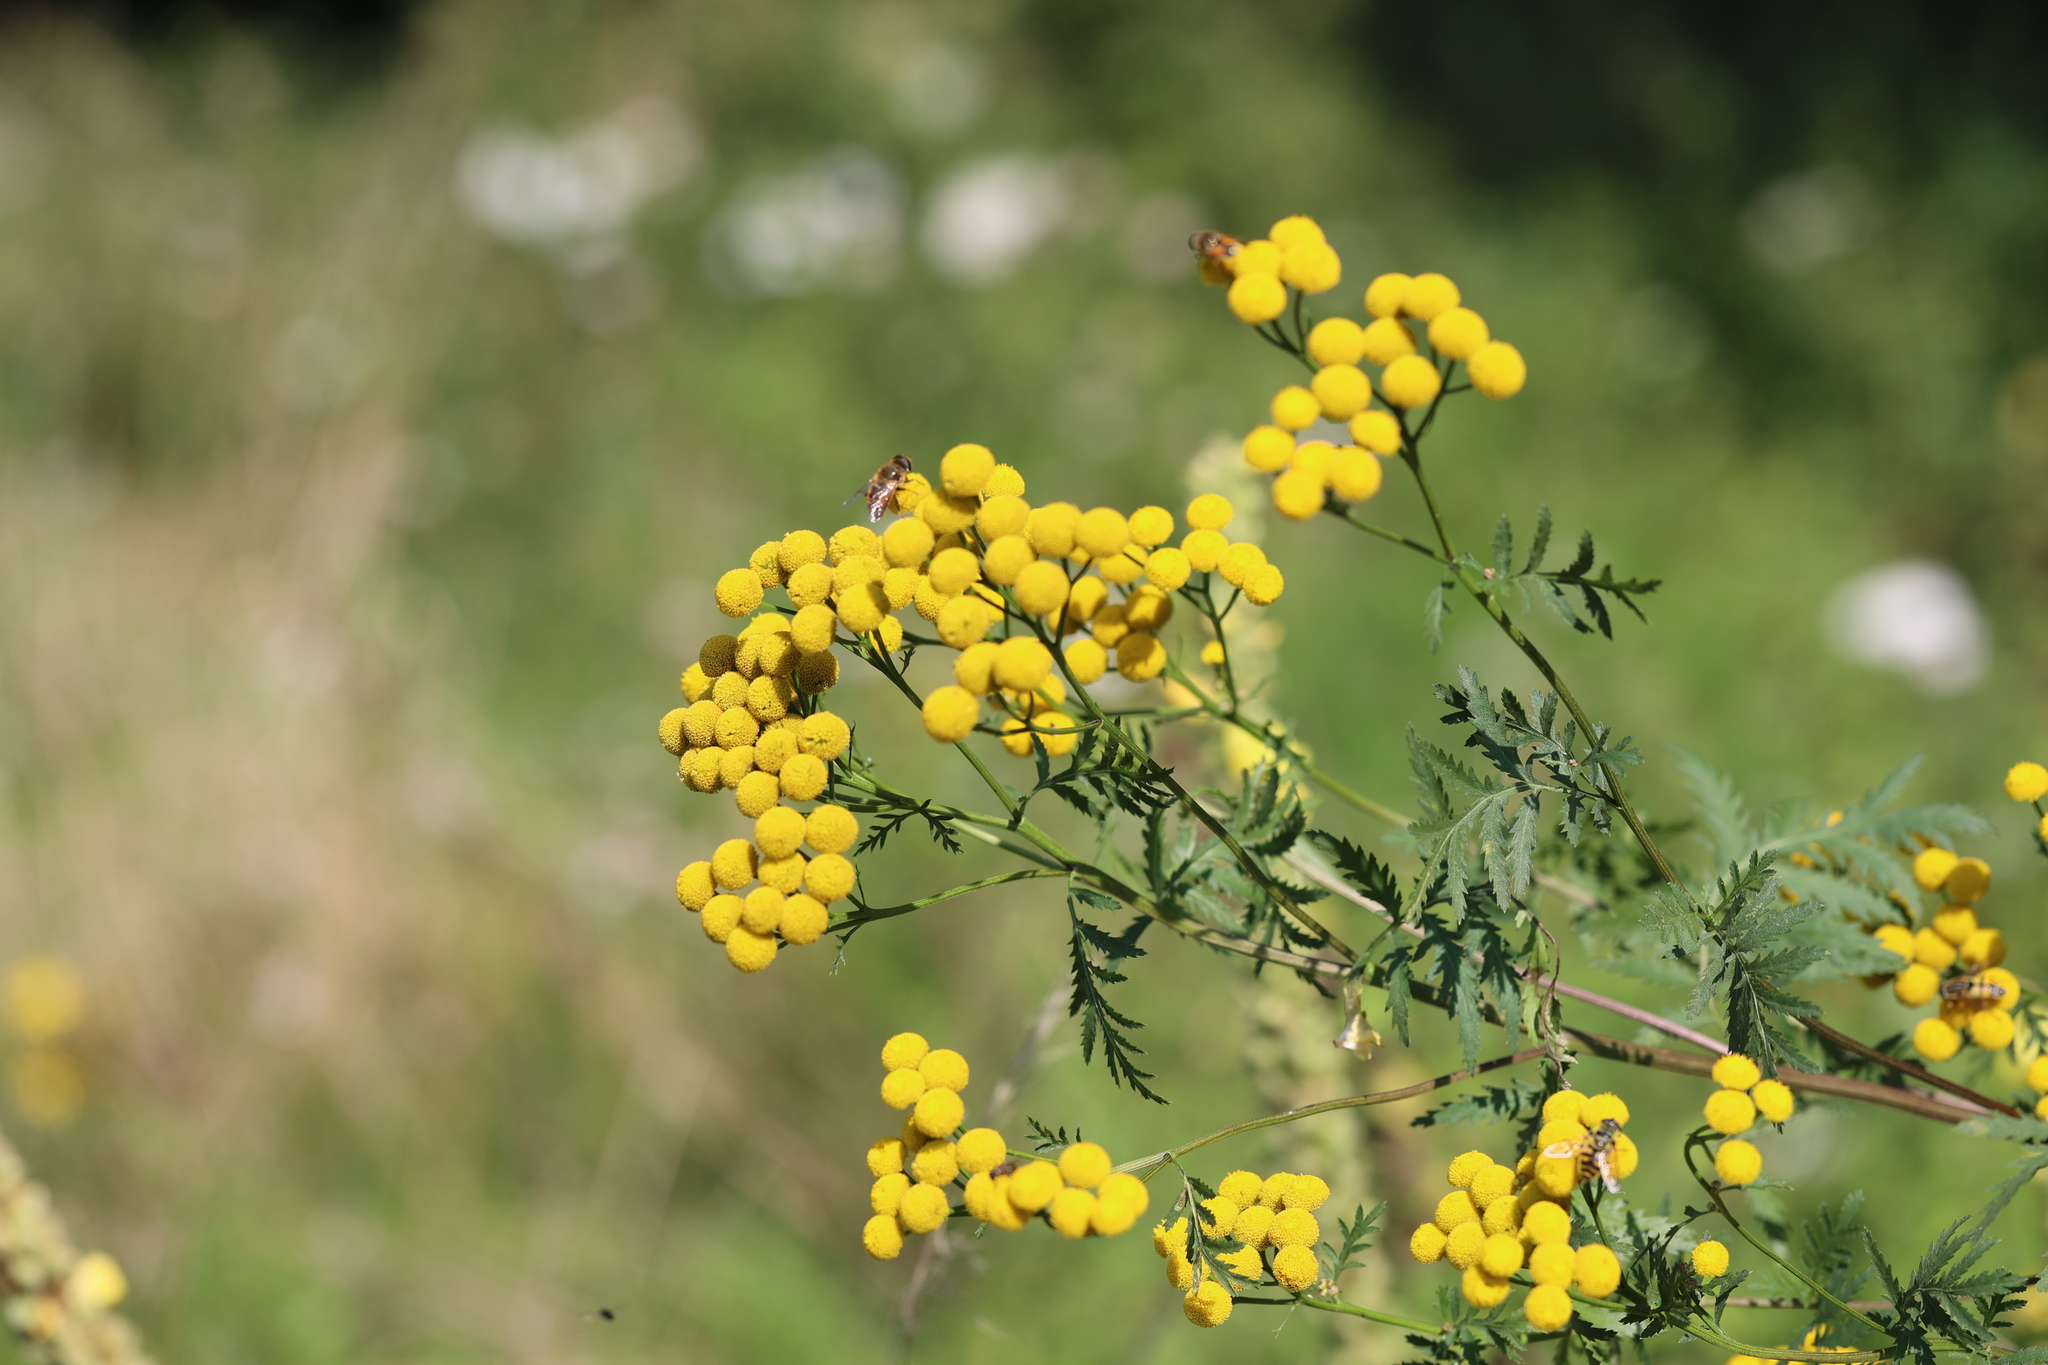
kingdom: Plantae
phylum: Tracheophyta
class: Magnoliopsida
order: Asterales
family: Asteraceae
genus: Tanacetum
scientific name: Tanacetum vulgare
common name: Common tansy
